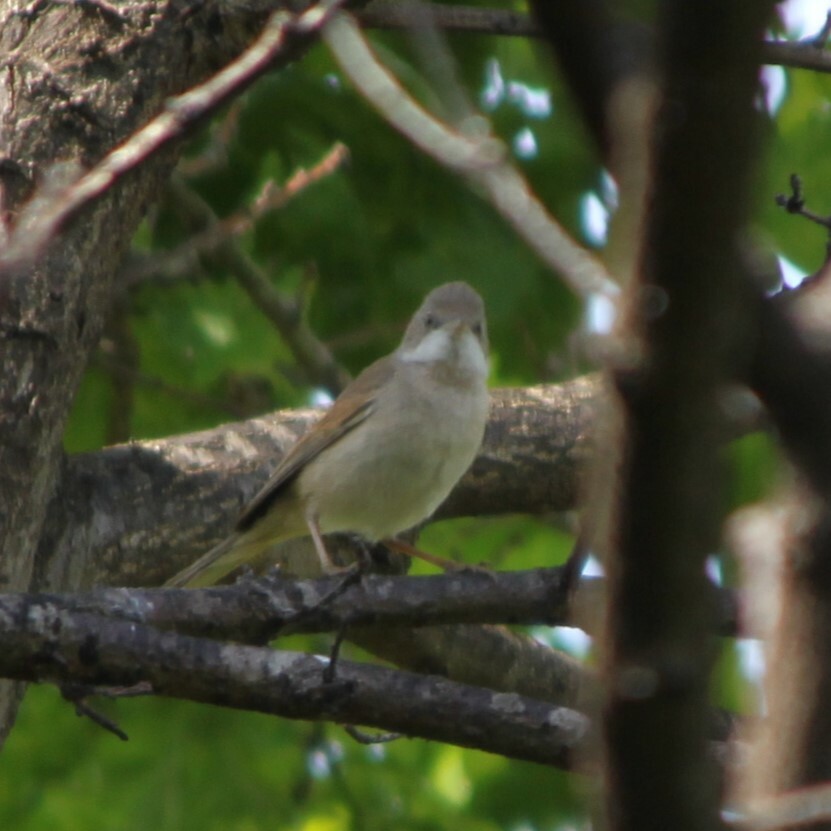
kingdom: Animalia
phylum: Chordata
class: Aves
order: Passeriformes
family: Sylviidae
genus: Sylvia
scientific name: Sylvia communis
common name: Common whitethroat
